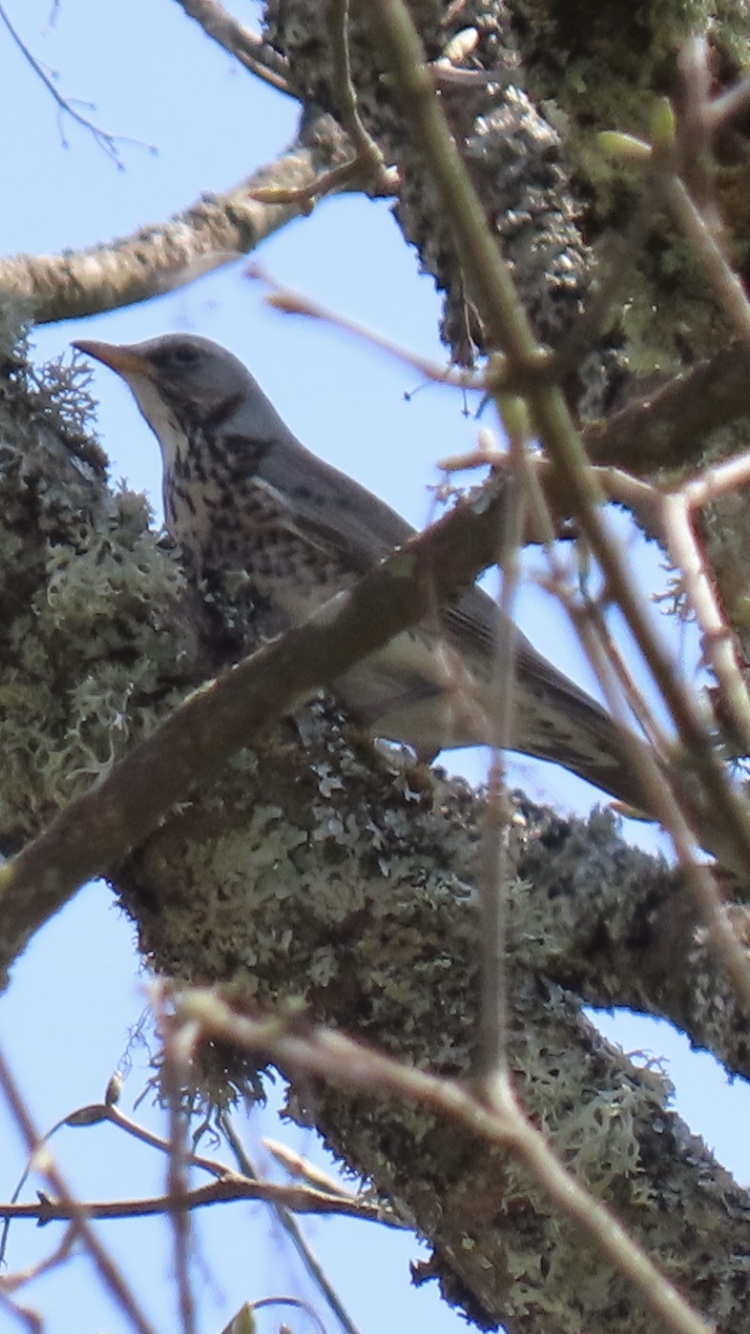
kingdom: Animalia
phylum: Chordata
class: Aves
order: Passeriformes
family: Turdidae
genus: Turdus
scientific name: Turdus pilaris
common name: Fieldfare
